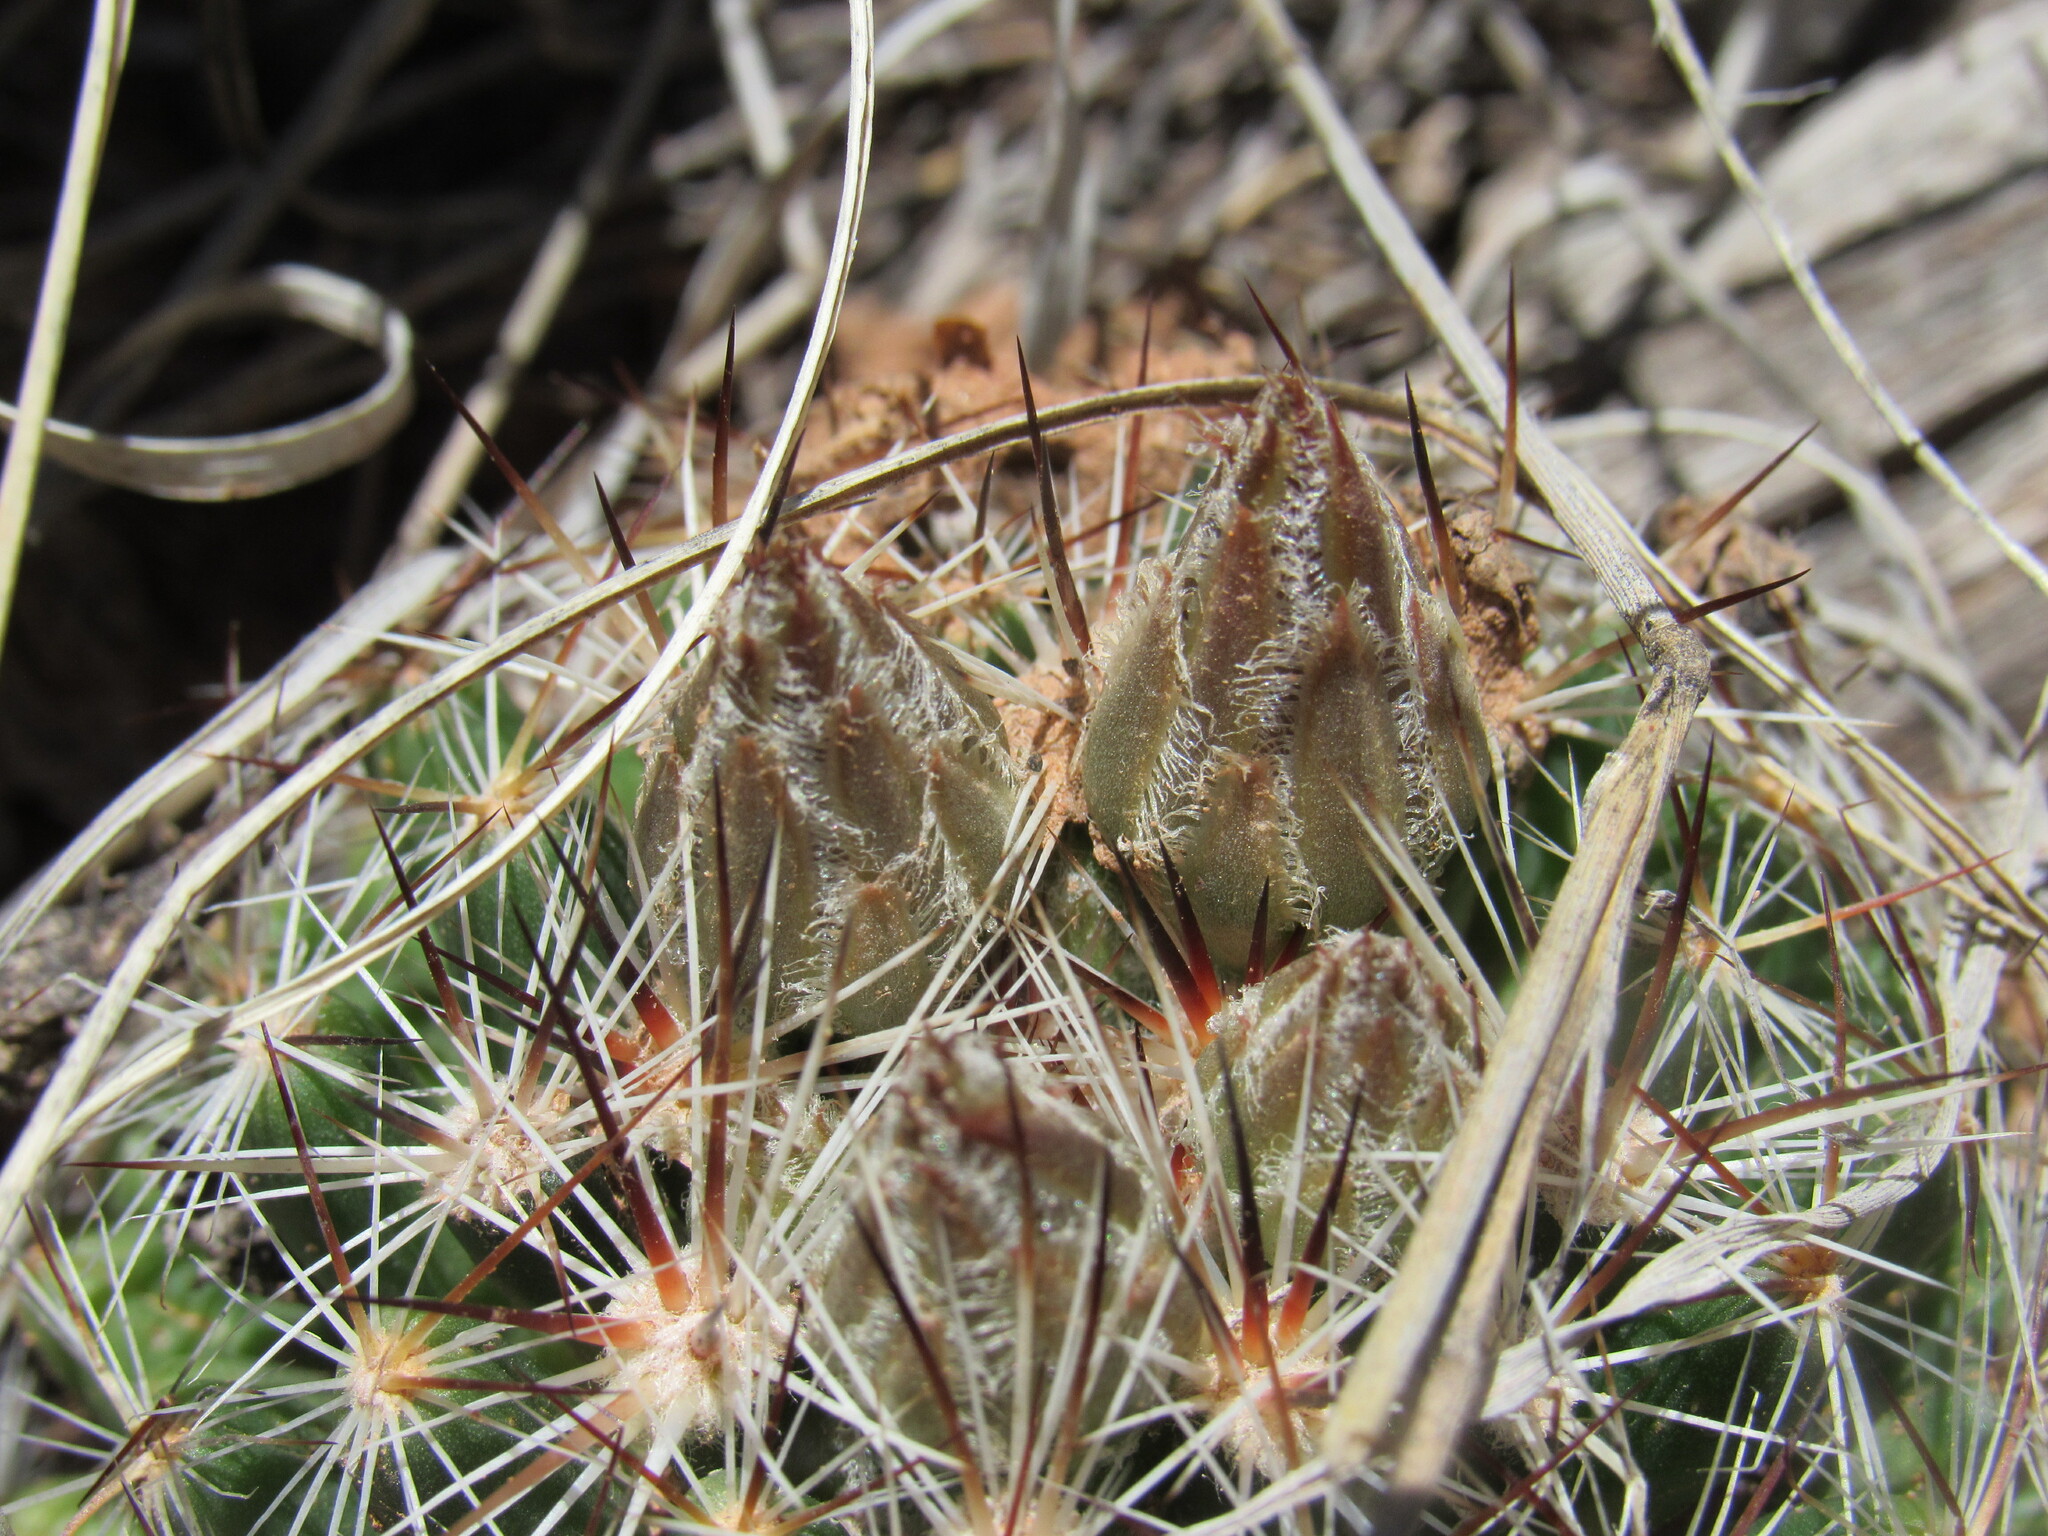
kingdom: Plantae
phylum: Tracheophyta
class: Magnoliopsida
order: Caryophyllales
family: Cactaceae
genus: Pelecyphora
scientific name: Pelecyphora vivipara
